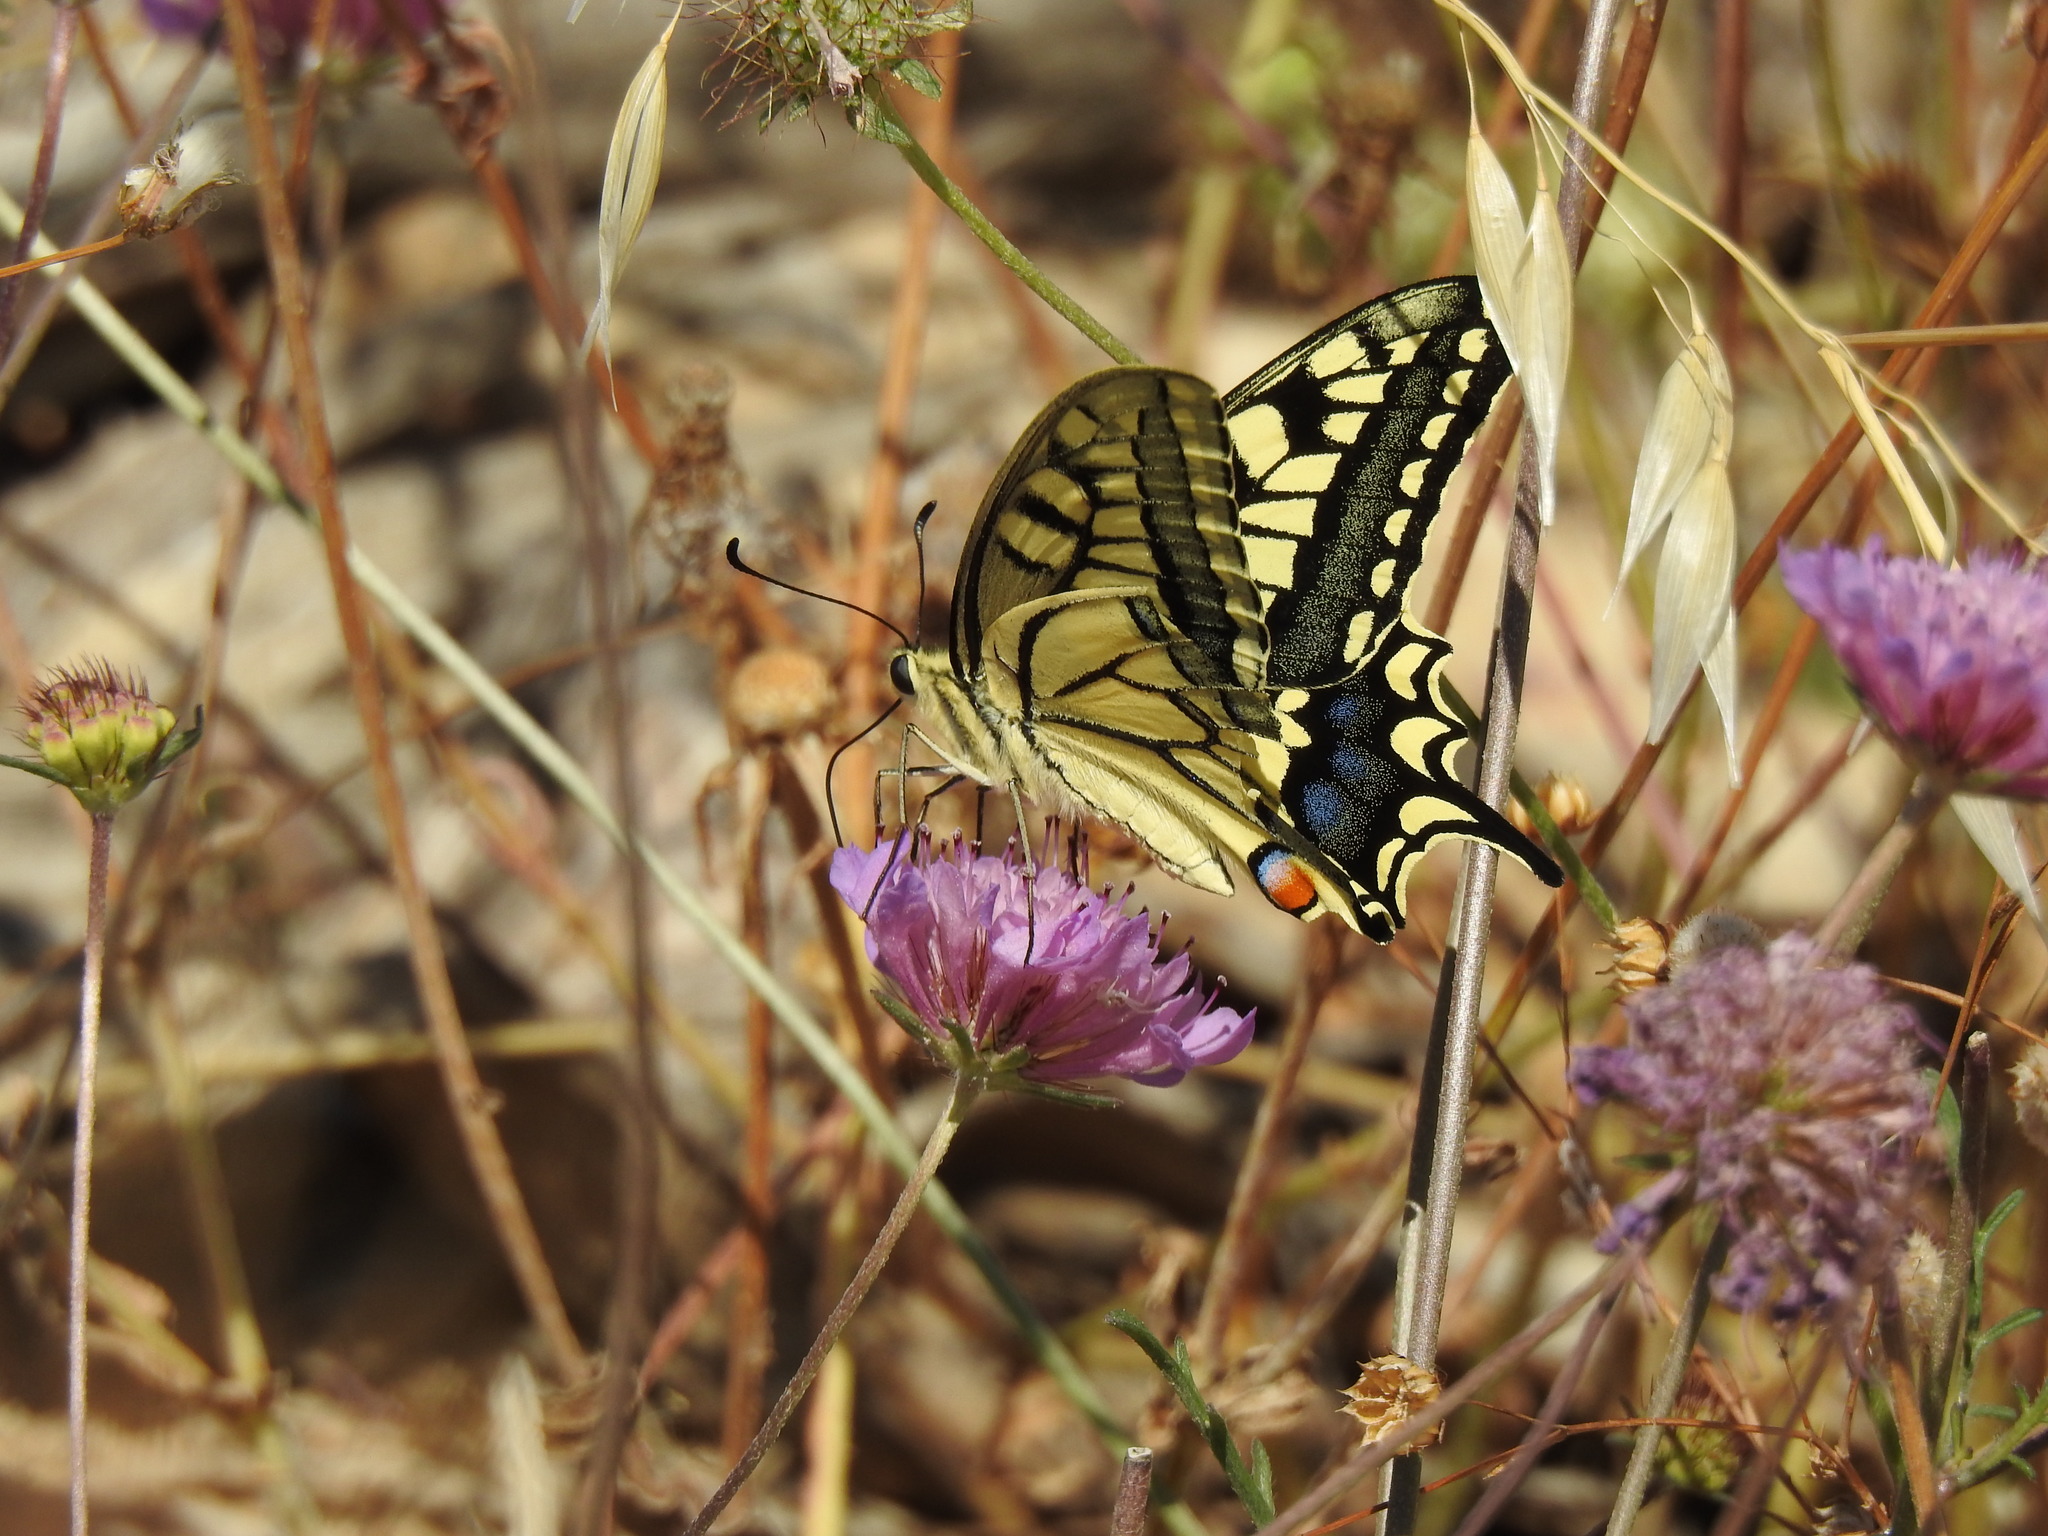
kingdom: Animalia
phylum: Arthropoda
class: Insecta
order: Lepidoptera
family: Papilionidae
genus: Papilio
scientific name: Papilio machaon
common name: Swallowtail
